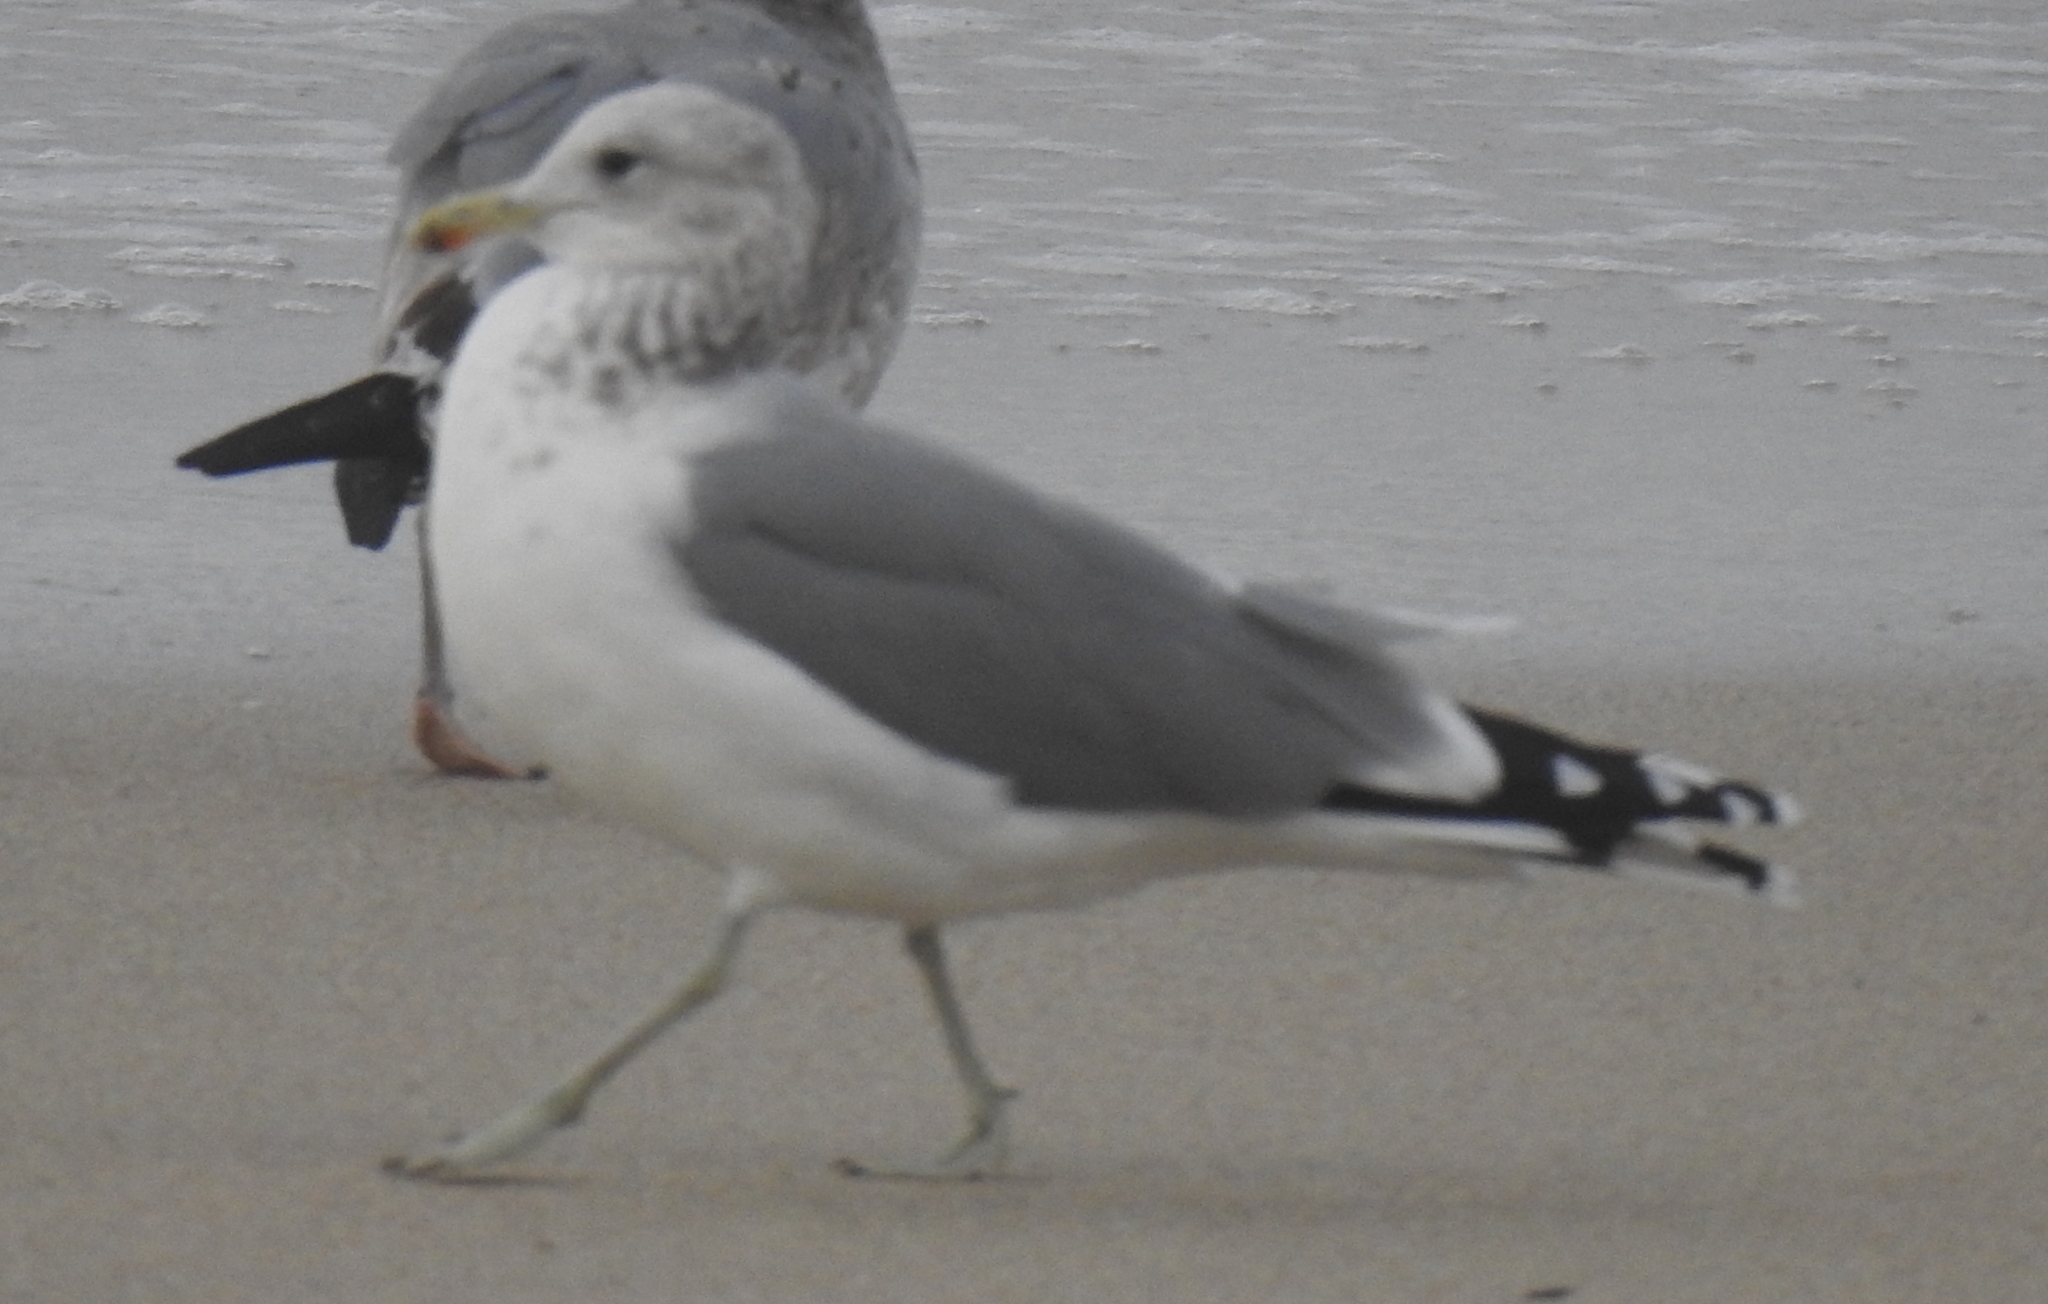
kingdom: Animalia
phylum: Chordata
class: Aves
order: Charadriiformes
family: Laridae
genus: Larus
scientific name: Larus californicus
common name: California gull
